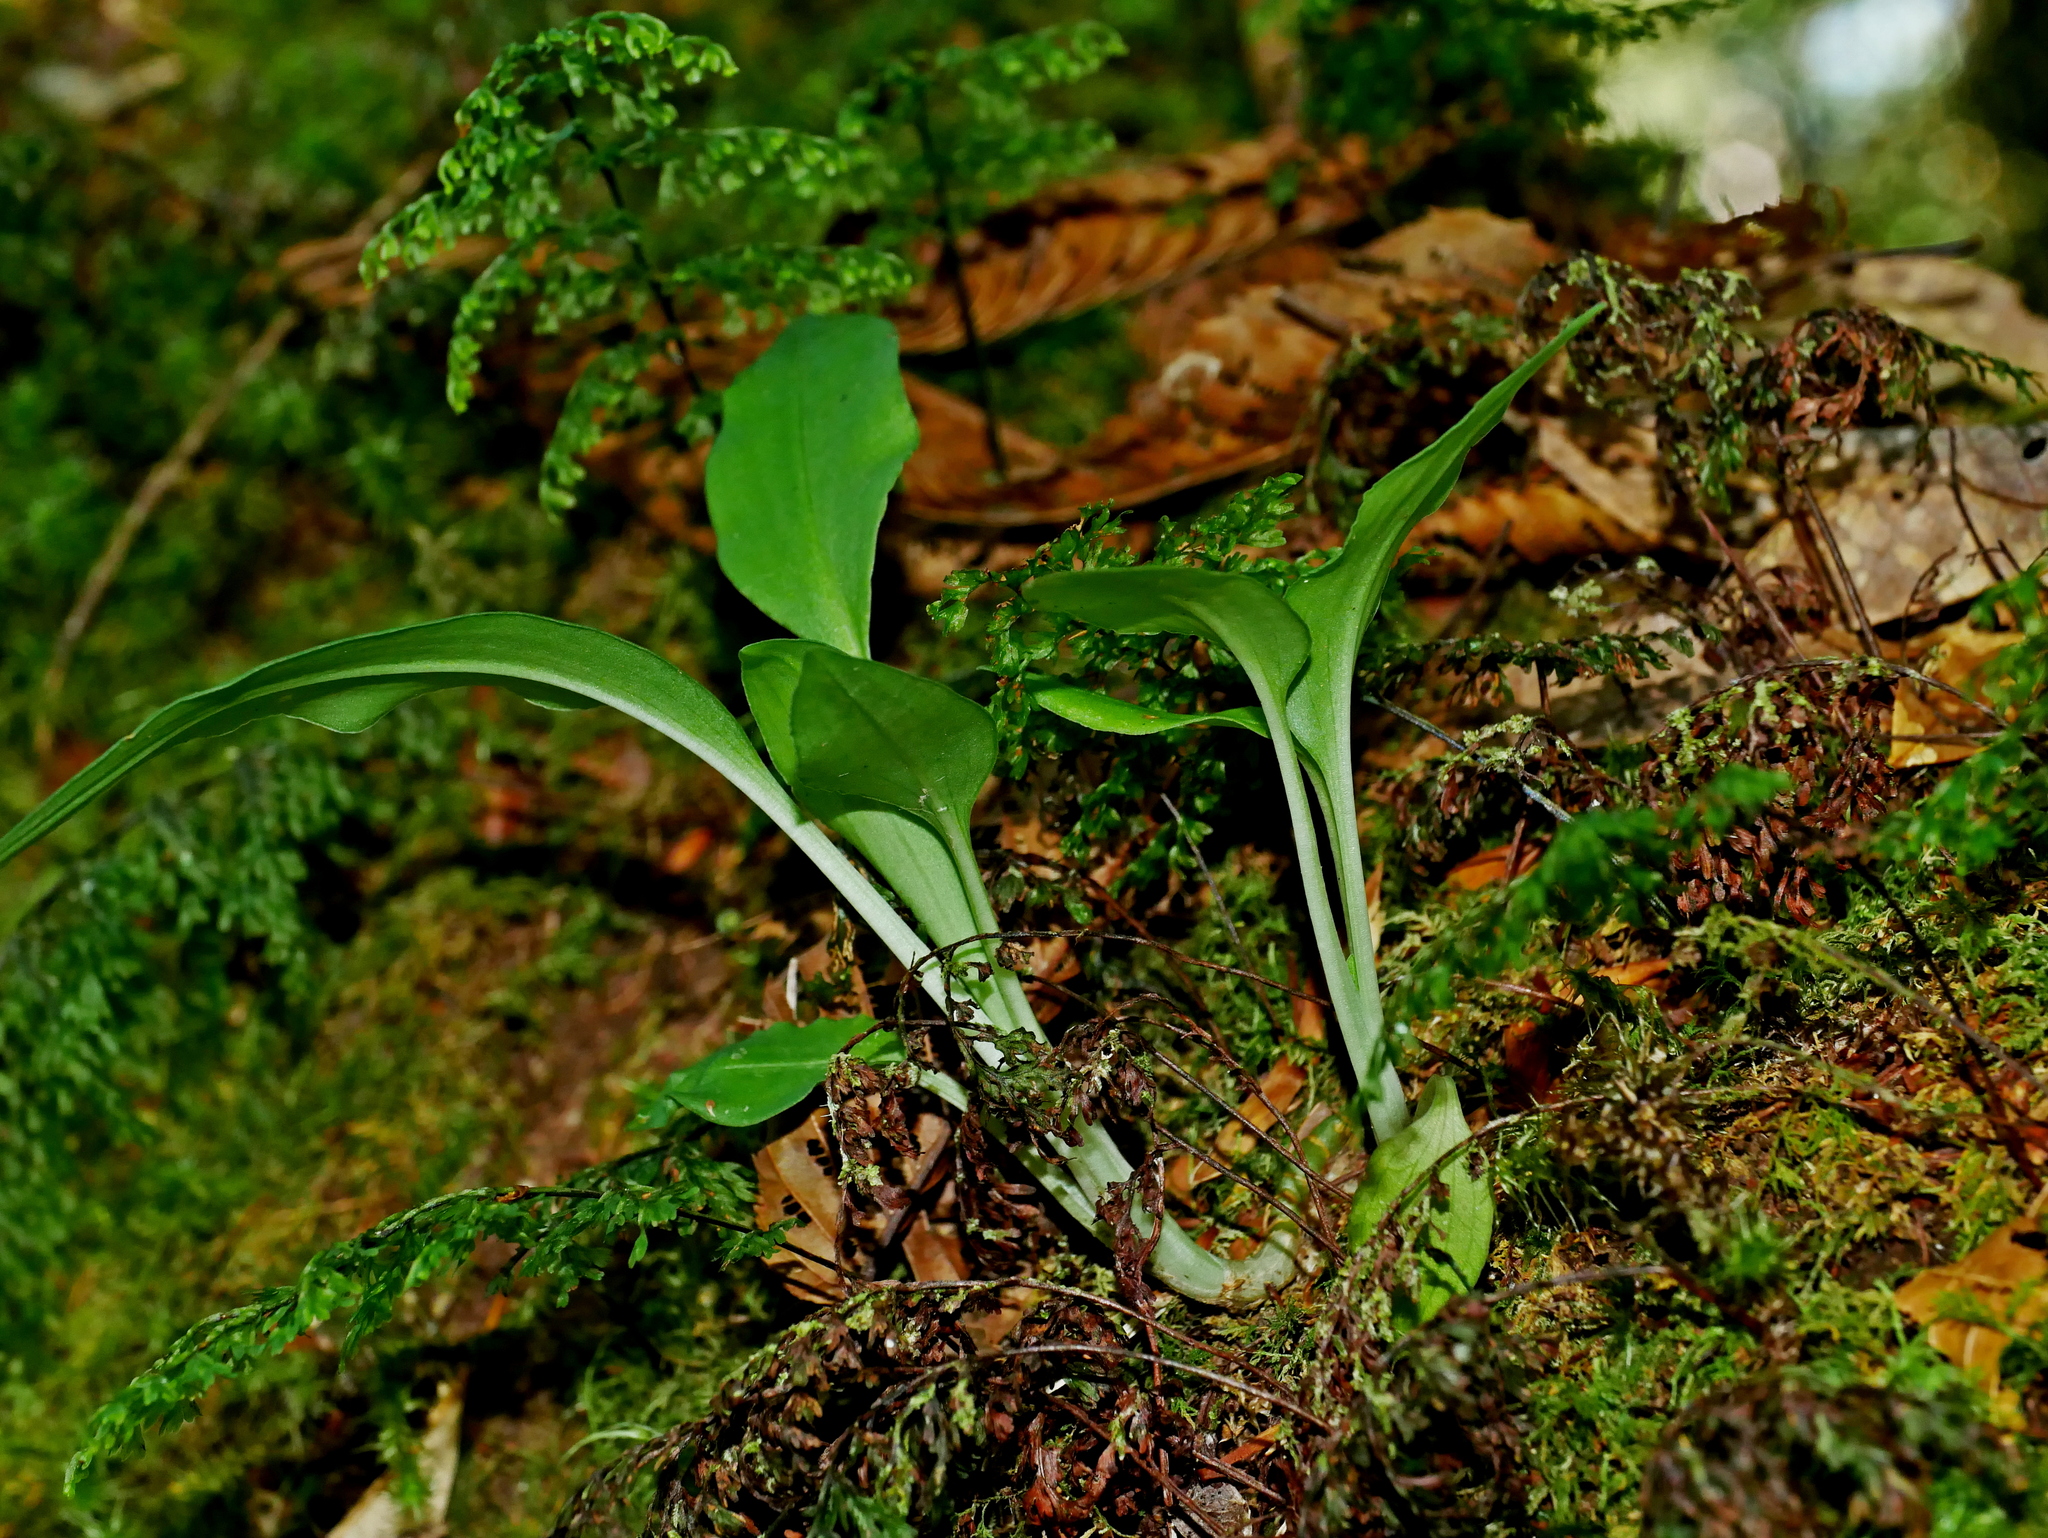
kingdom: Plantae
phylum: Tracheophyta
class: Liliopsida
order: Asparagales
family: Orchidaceae
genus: Goodyera
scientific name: Goodyera robusta
